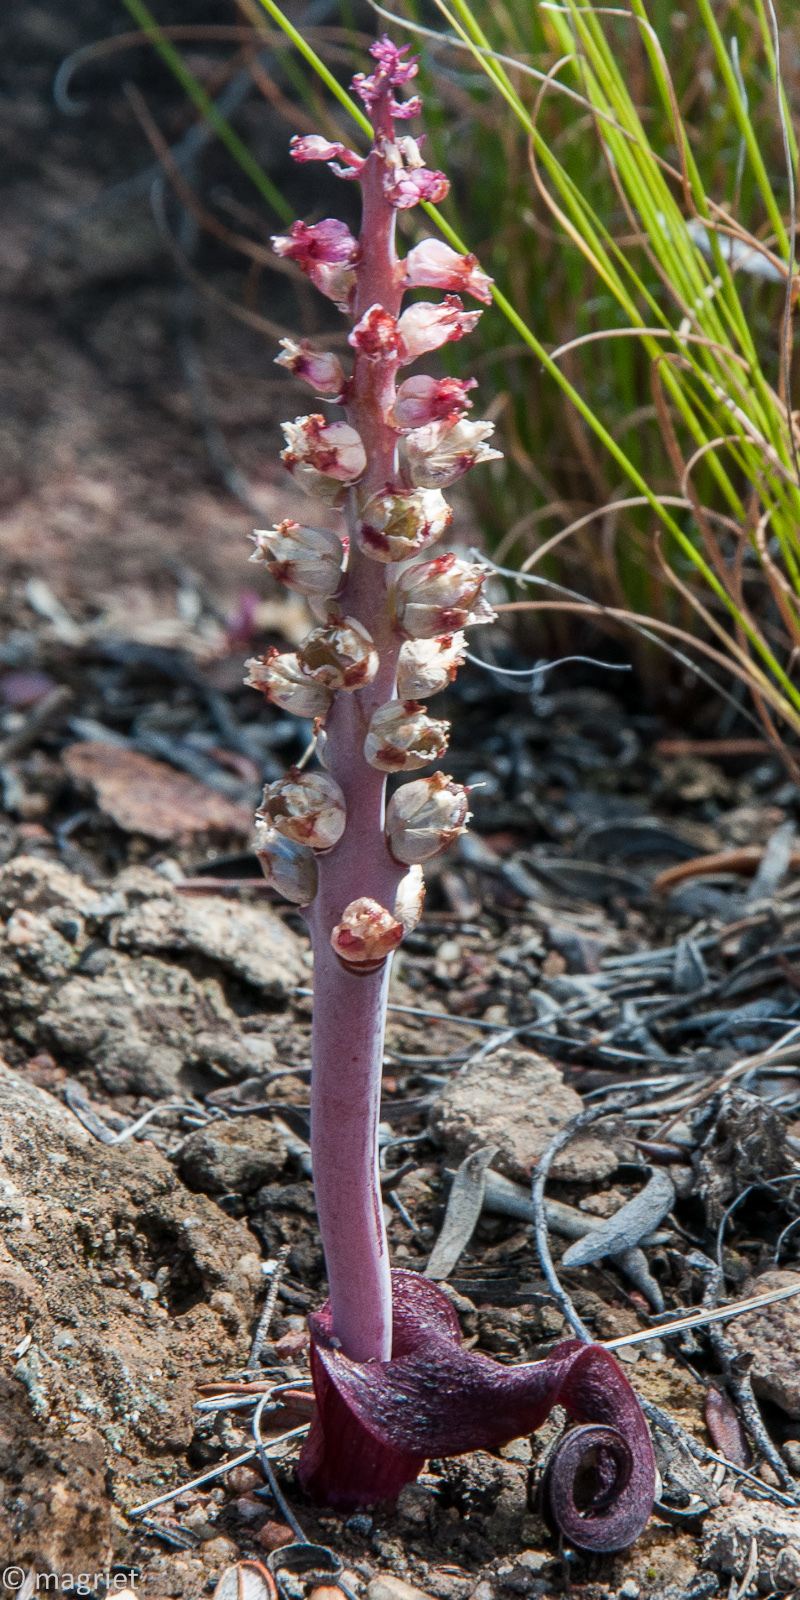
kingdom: Plantae
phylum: Tracheophyta
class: Liliopsida
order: Asparagales
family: Asparagaceae
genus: Lachenalia
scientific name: Lachenalia elegans
